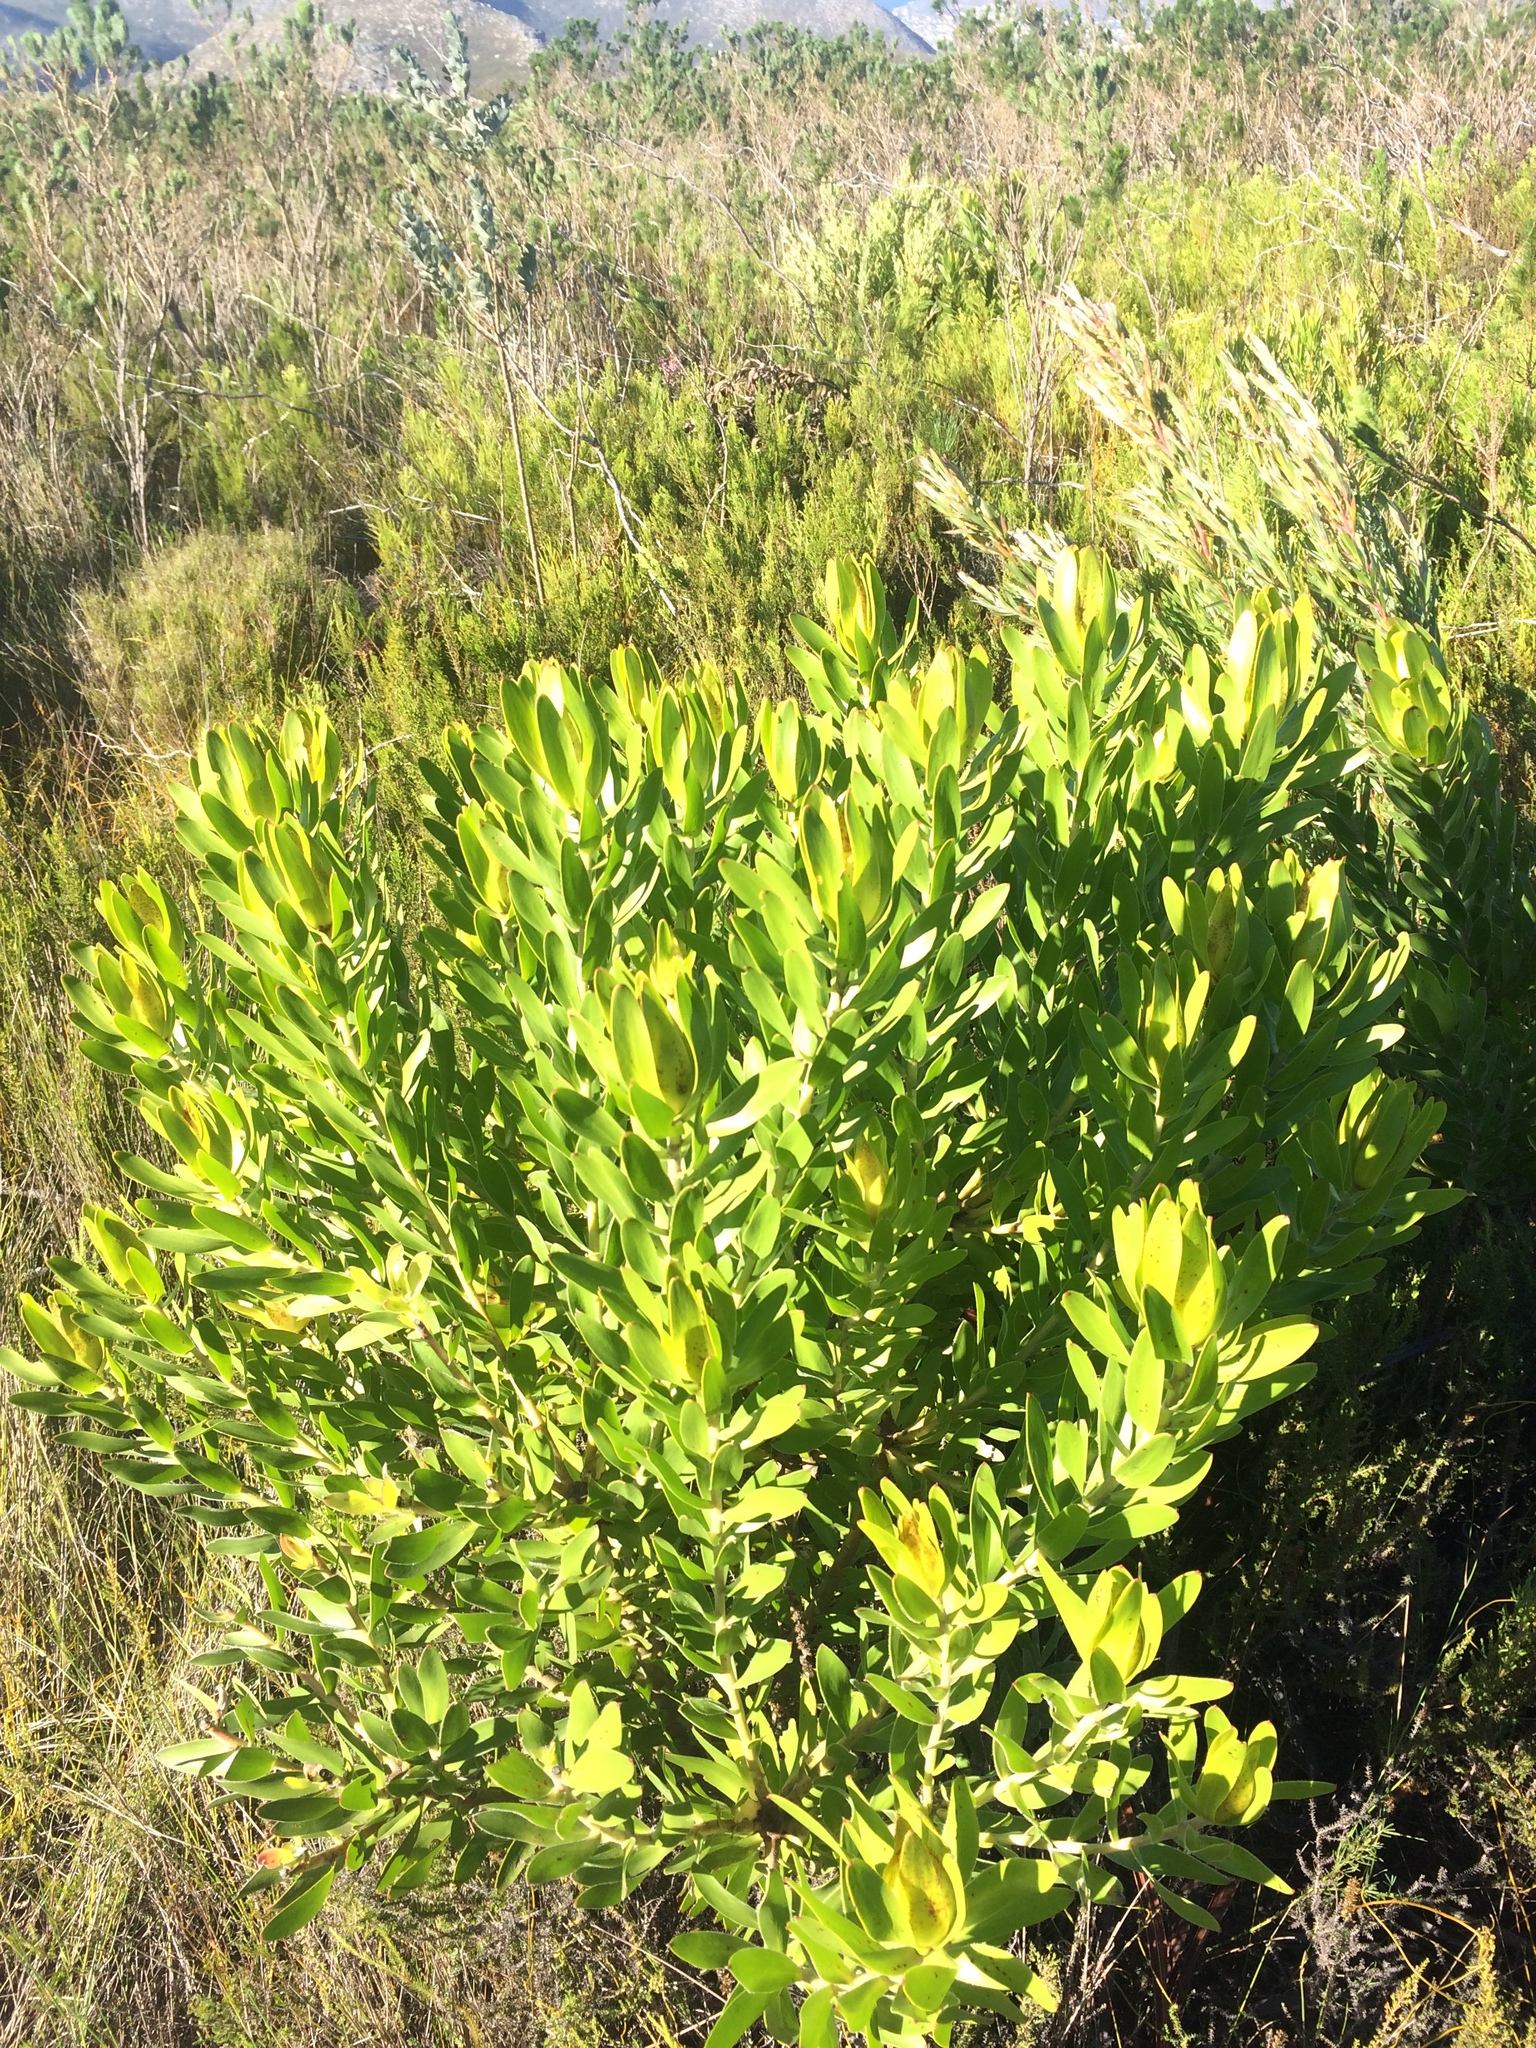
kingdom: Plantae
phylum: Tracheophyta
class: Magnoliopsida
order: Proteales
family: Proteaceae
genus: Leucadendron
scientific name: Leucadendron laureolum
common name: Golden sunshinebush
